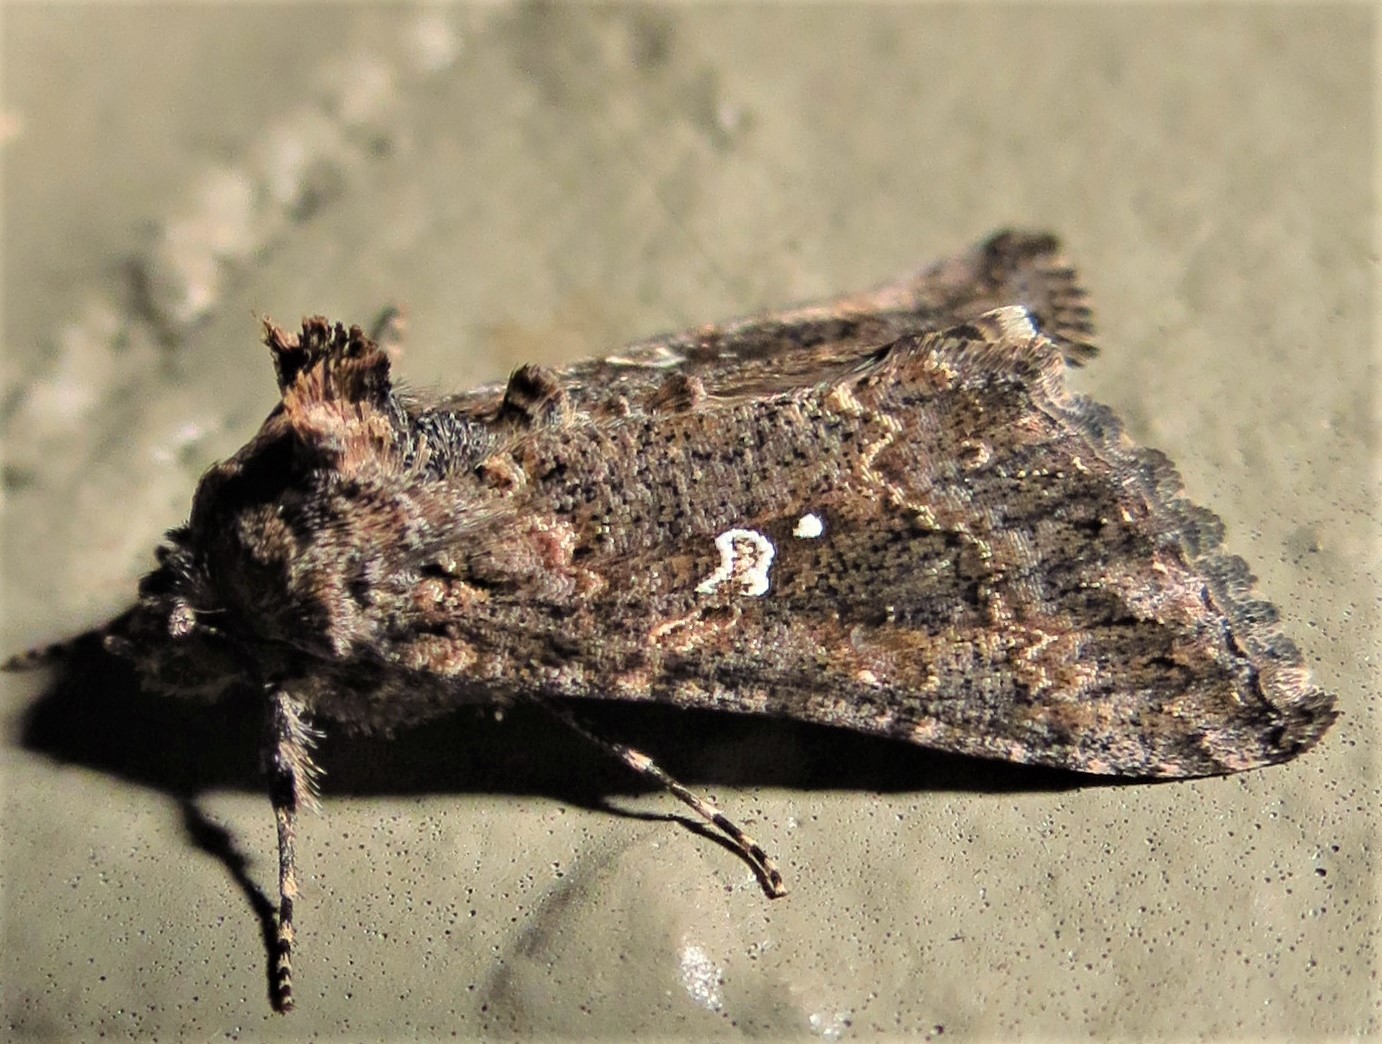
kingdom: Animalia
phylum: Arthropoda
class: Insecta
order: Lepidoptera
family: Noctuidae
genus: Rachiplusia
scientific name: Rachiplusia ou
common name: Gray looper moth
